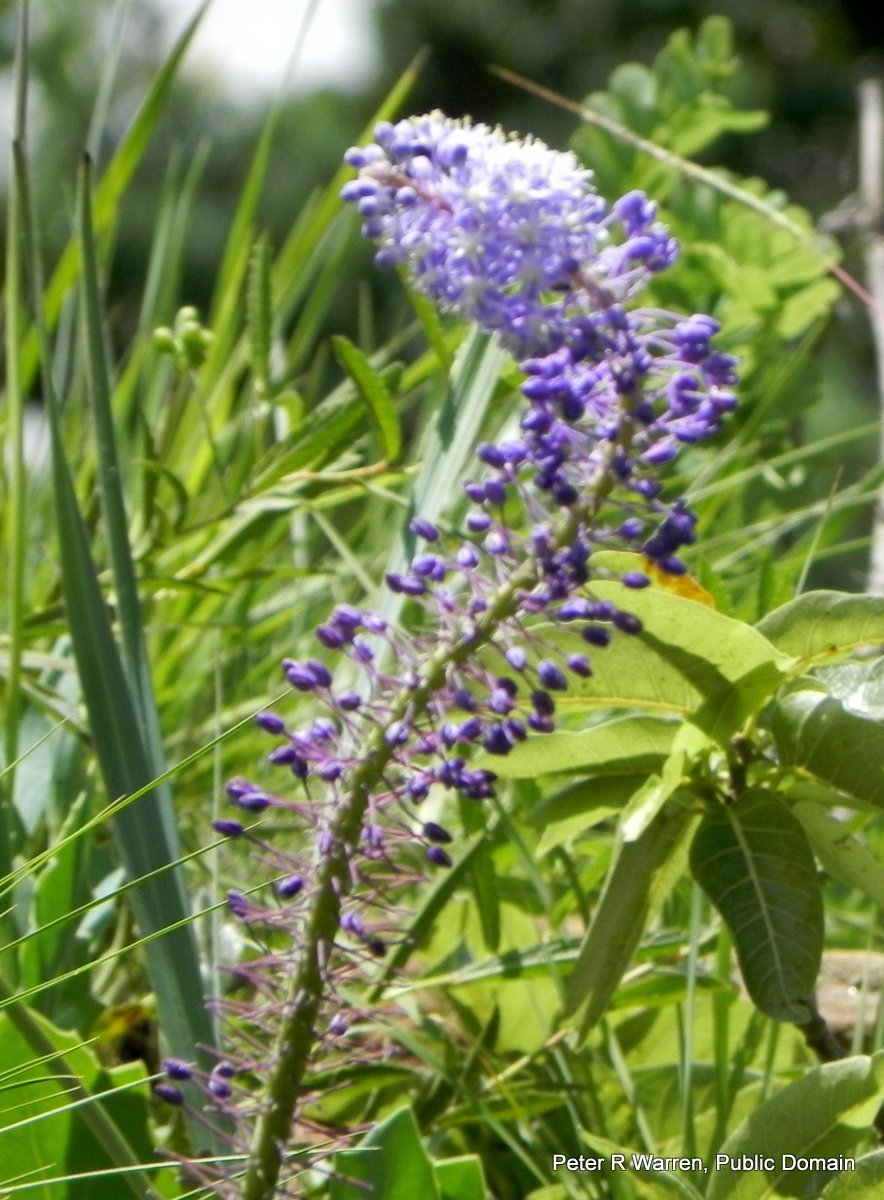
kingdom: Plantae
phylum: Tracheophyta
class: Liliopsida
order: Asparagales
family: Asparagaceae
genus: Merwilla
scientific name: Merwilla plumbea
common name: Blue-squill
